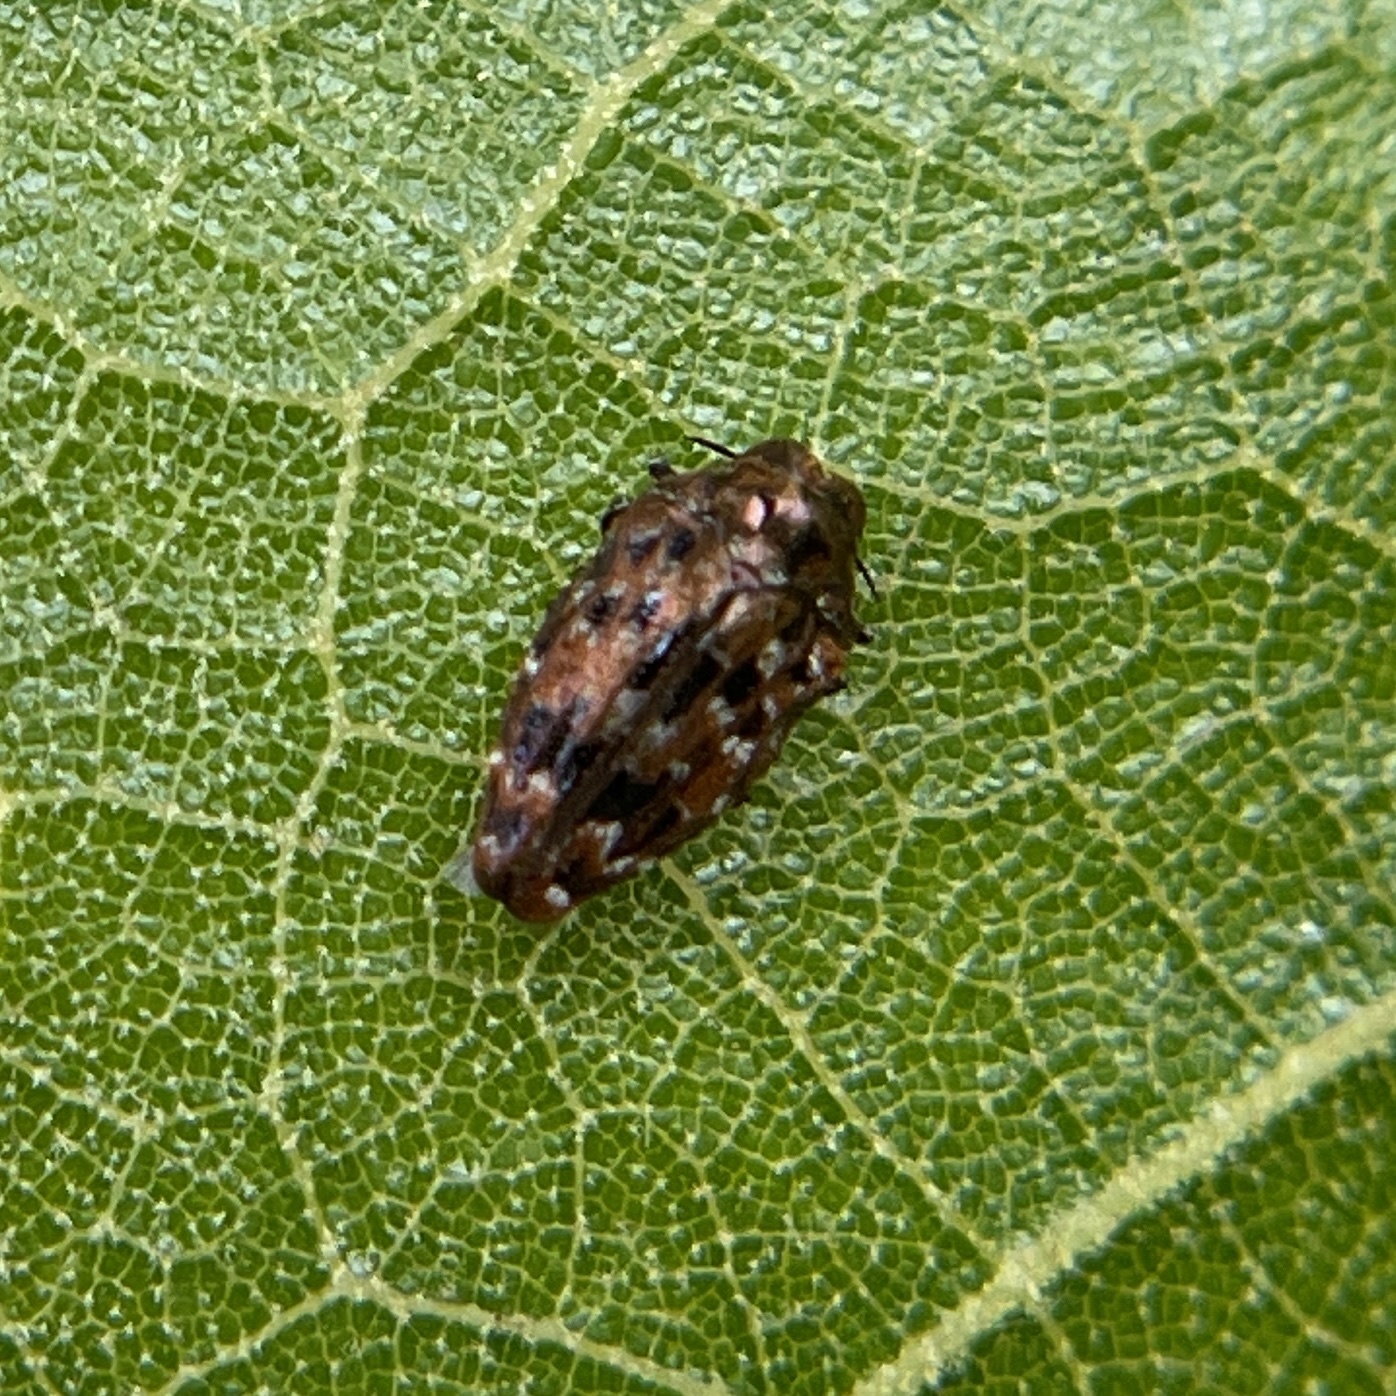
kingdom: Animalia
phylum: Arthropoda
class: Insecta
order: Coleoptera
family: Buprestidae
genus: Brachys
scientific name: Brachys ovatus
